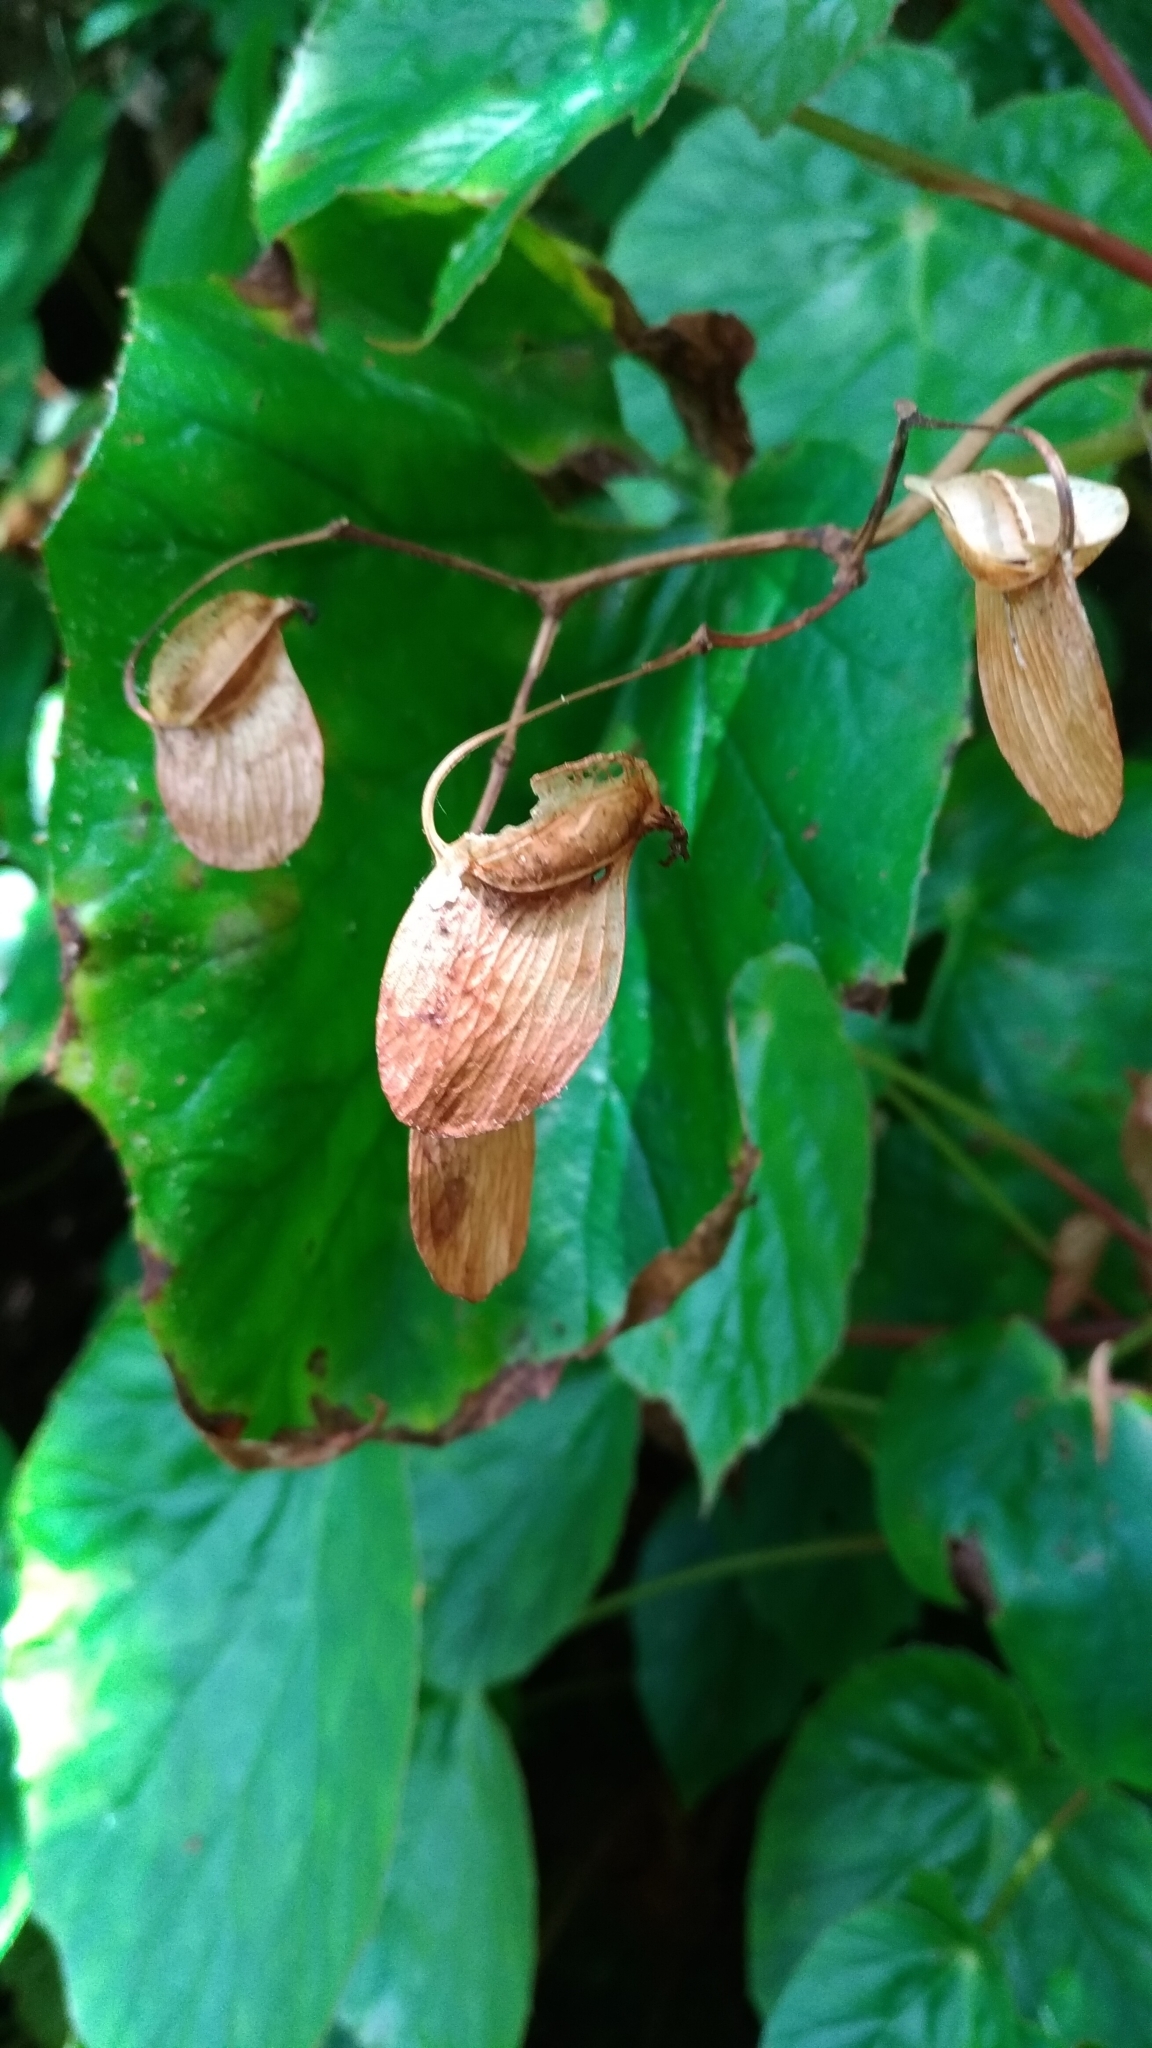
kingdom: Plantae
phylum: Tracheophyta
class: Magnoliopsida
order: Cucurbitales
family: Begoniaceae
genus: Begonia
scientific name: Begonia chitoensis
